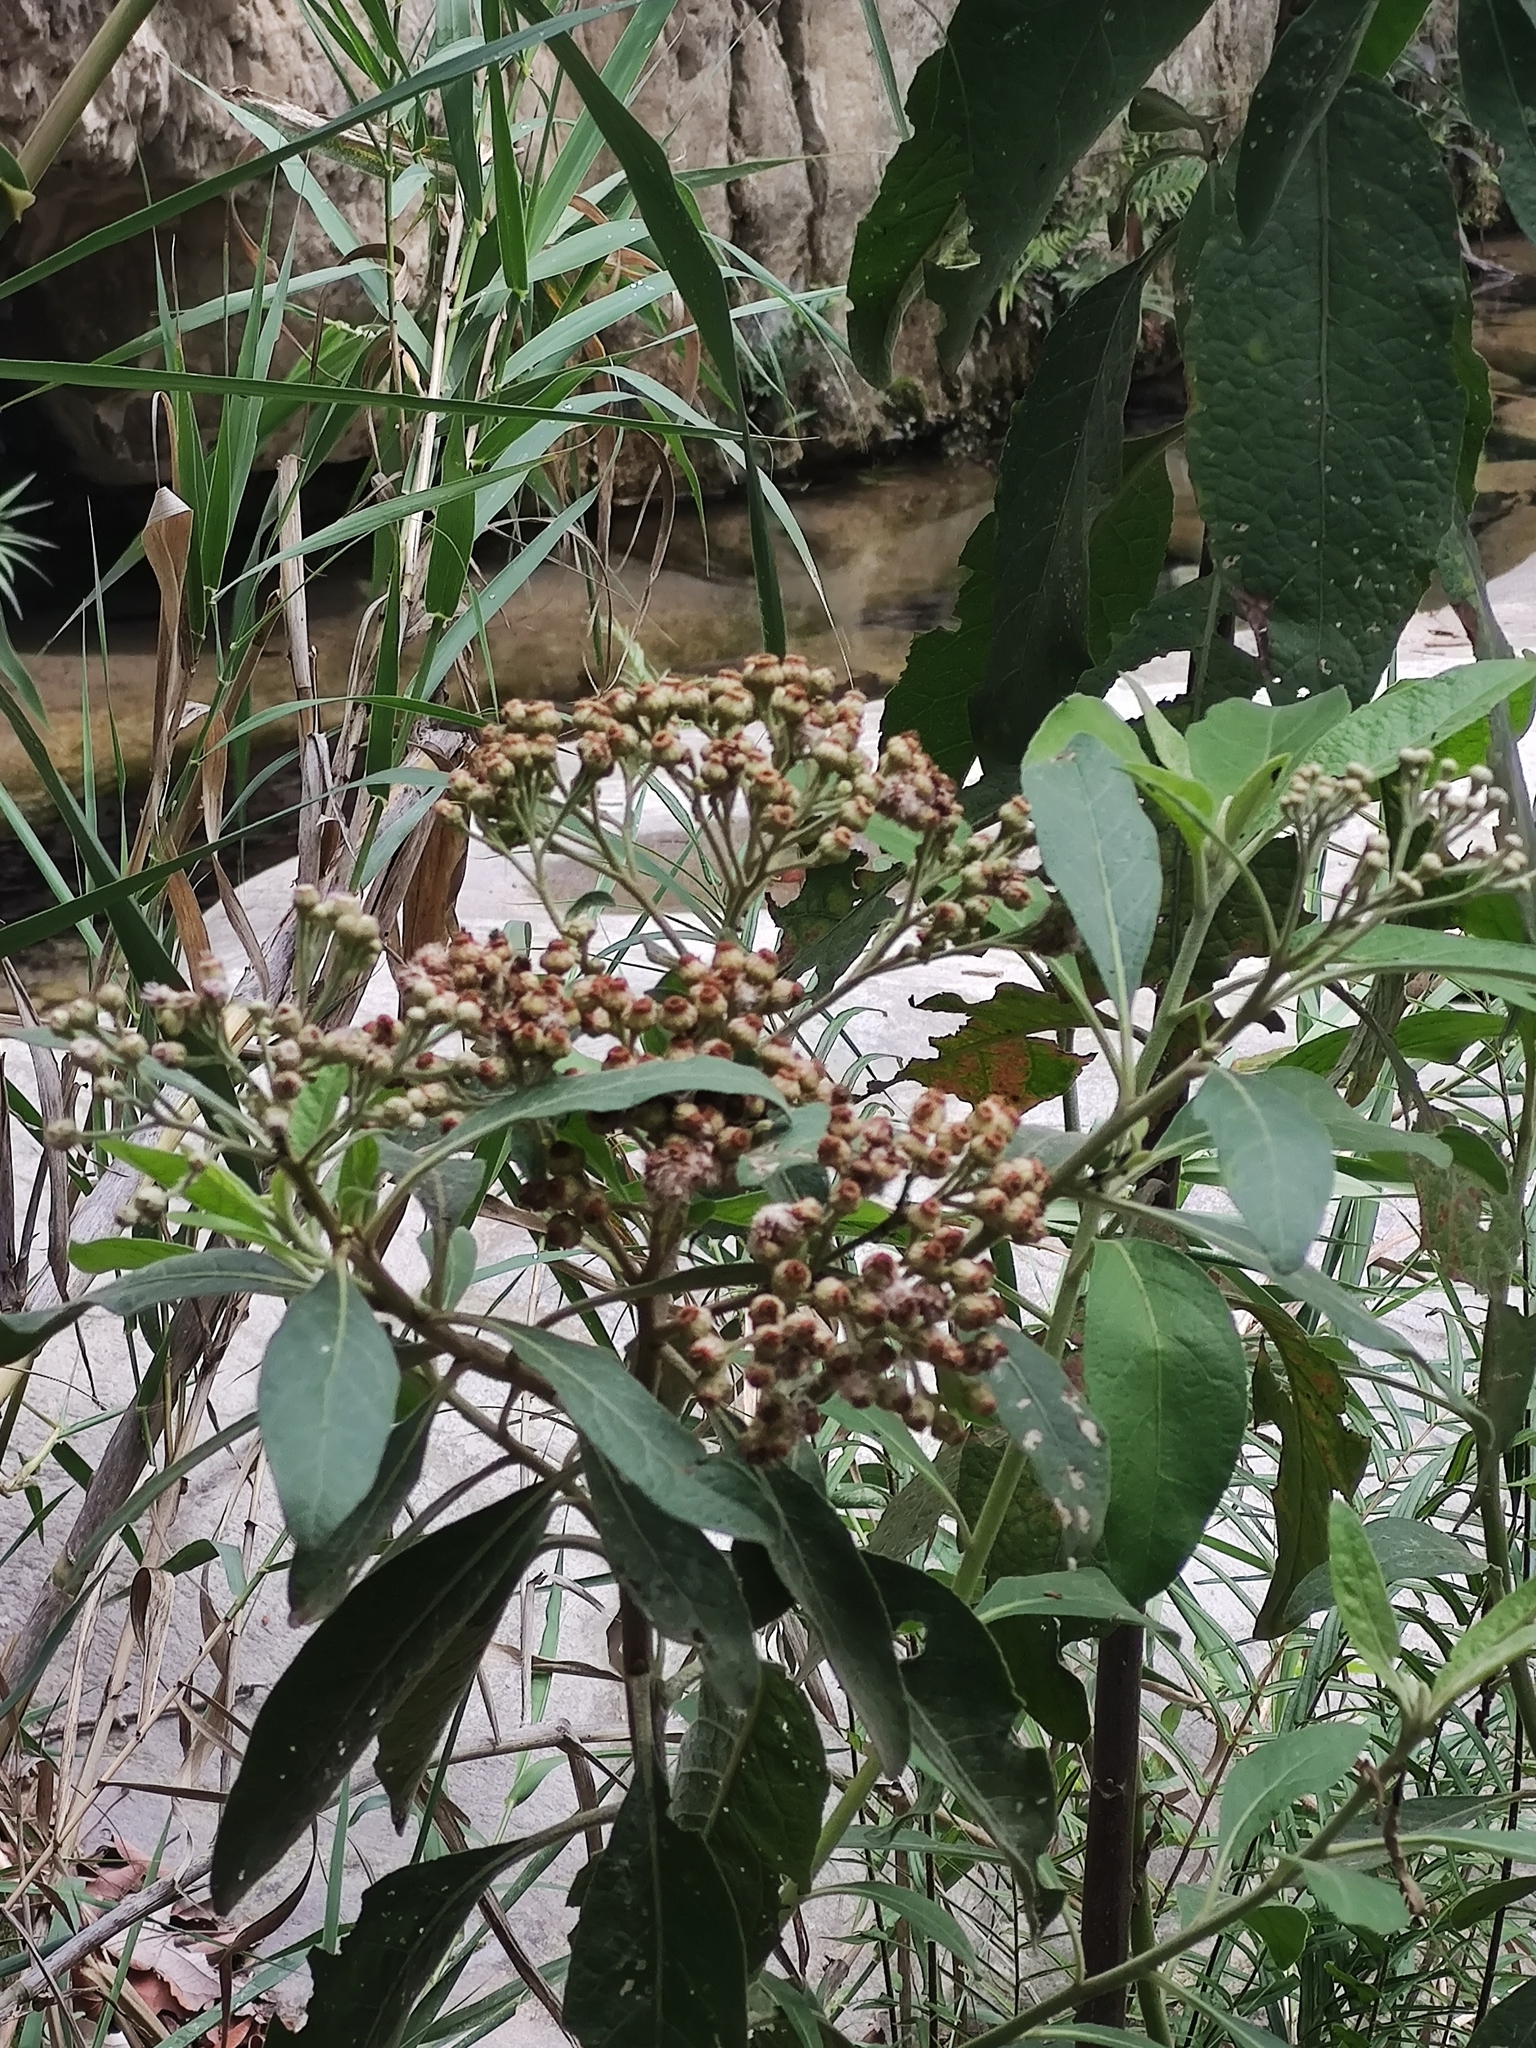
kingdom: Plantae
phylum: Tracheophyta
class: Magnoliopsida
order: Asterales
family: Asteraceae
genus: Pluchea
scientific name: Pluchea carolinensis
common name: Marsh fleabane
